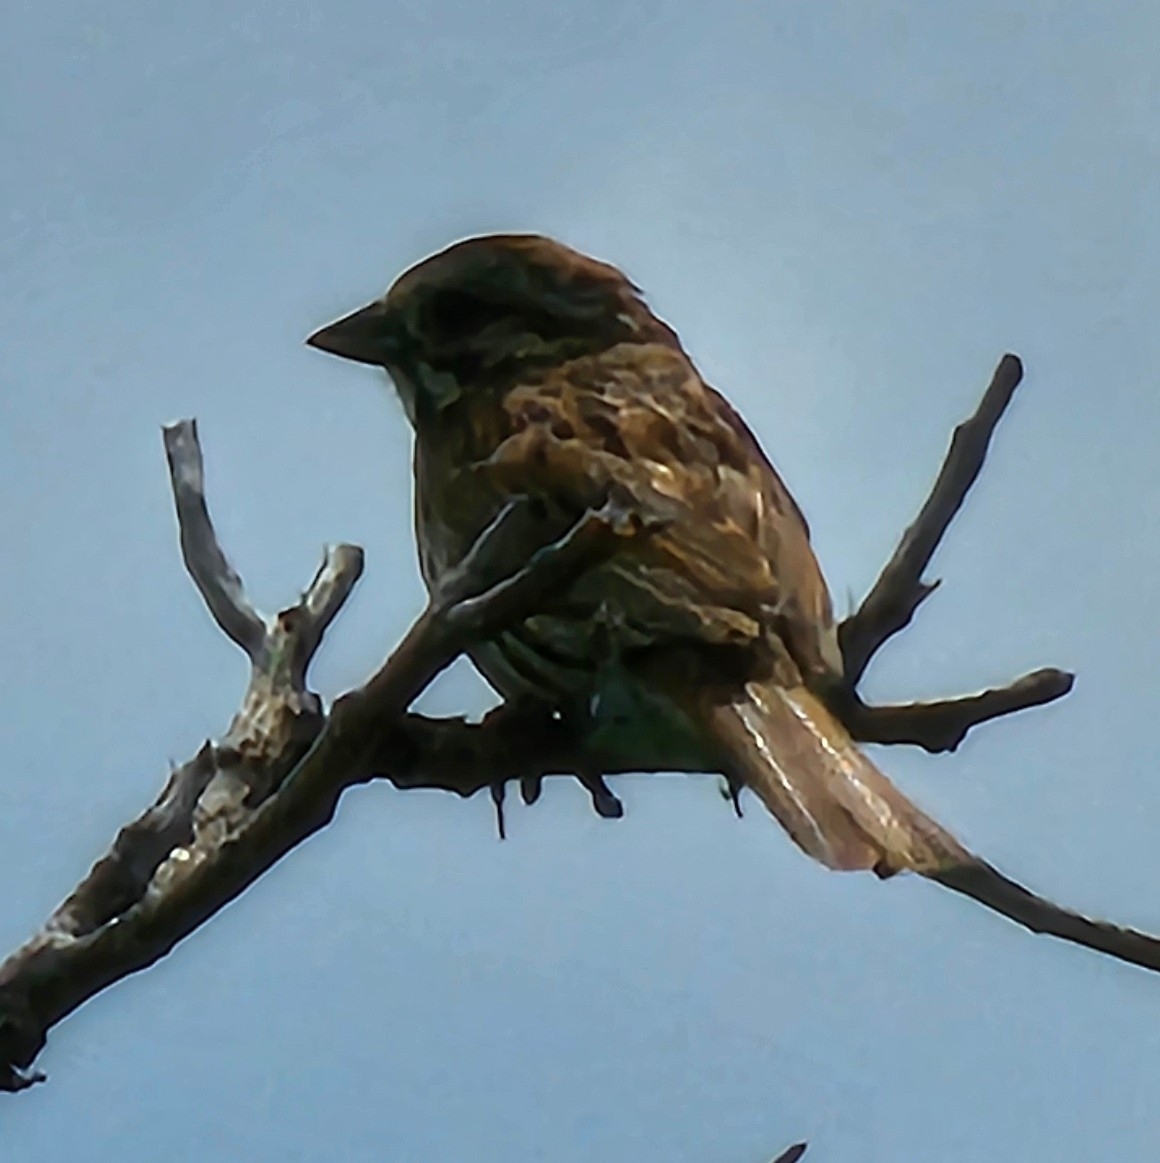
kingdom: Animalia
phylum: Chordata
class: Aves
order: Passeriformes
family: Passerellidae
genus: Melospiza
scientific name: Melospiza melodia
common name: Song sparrow
